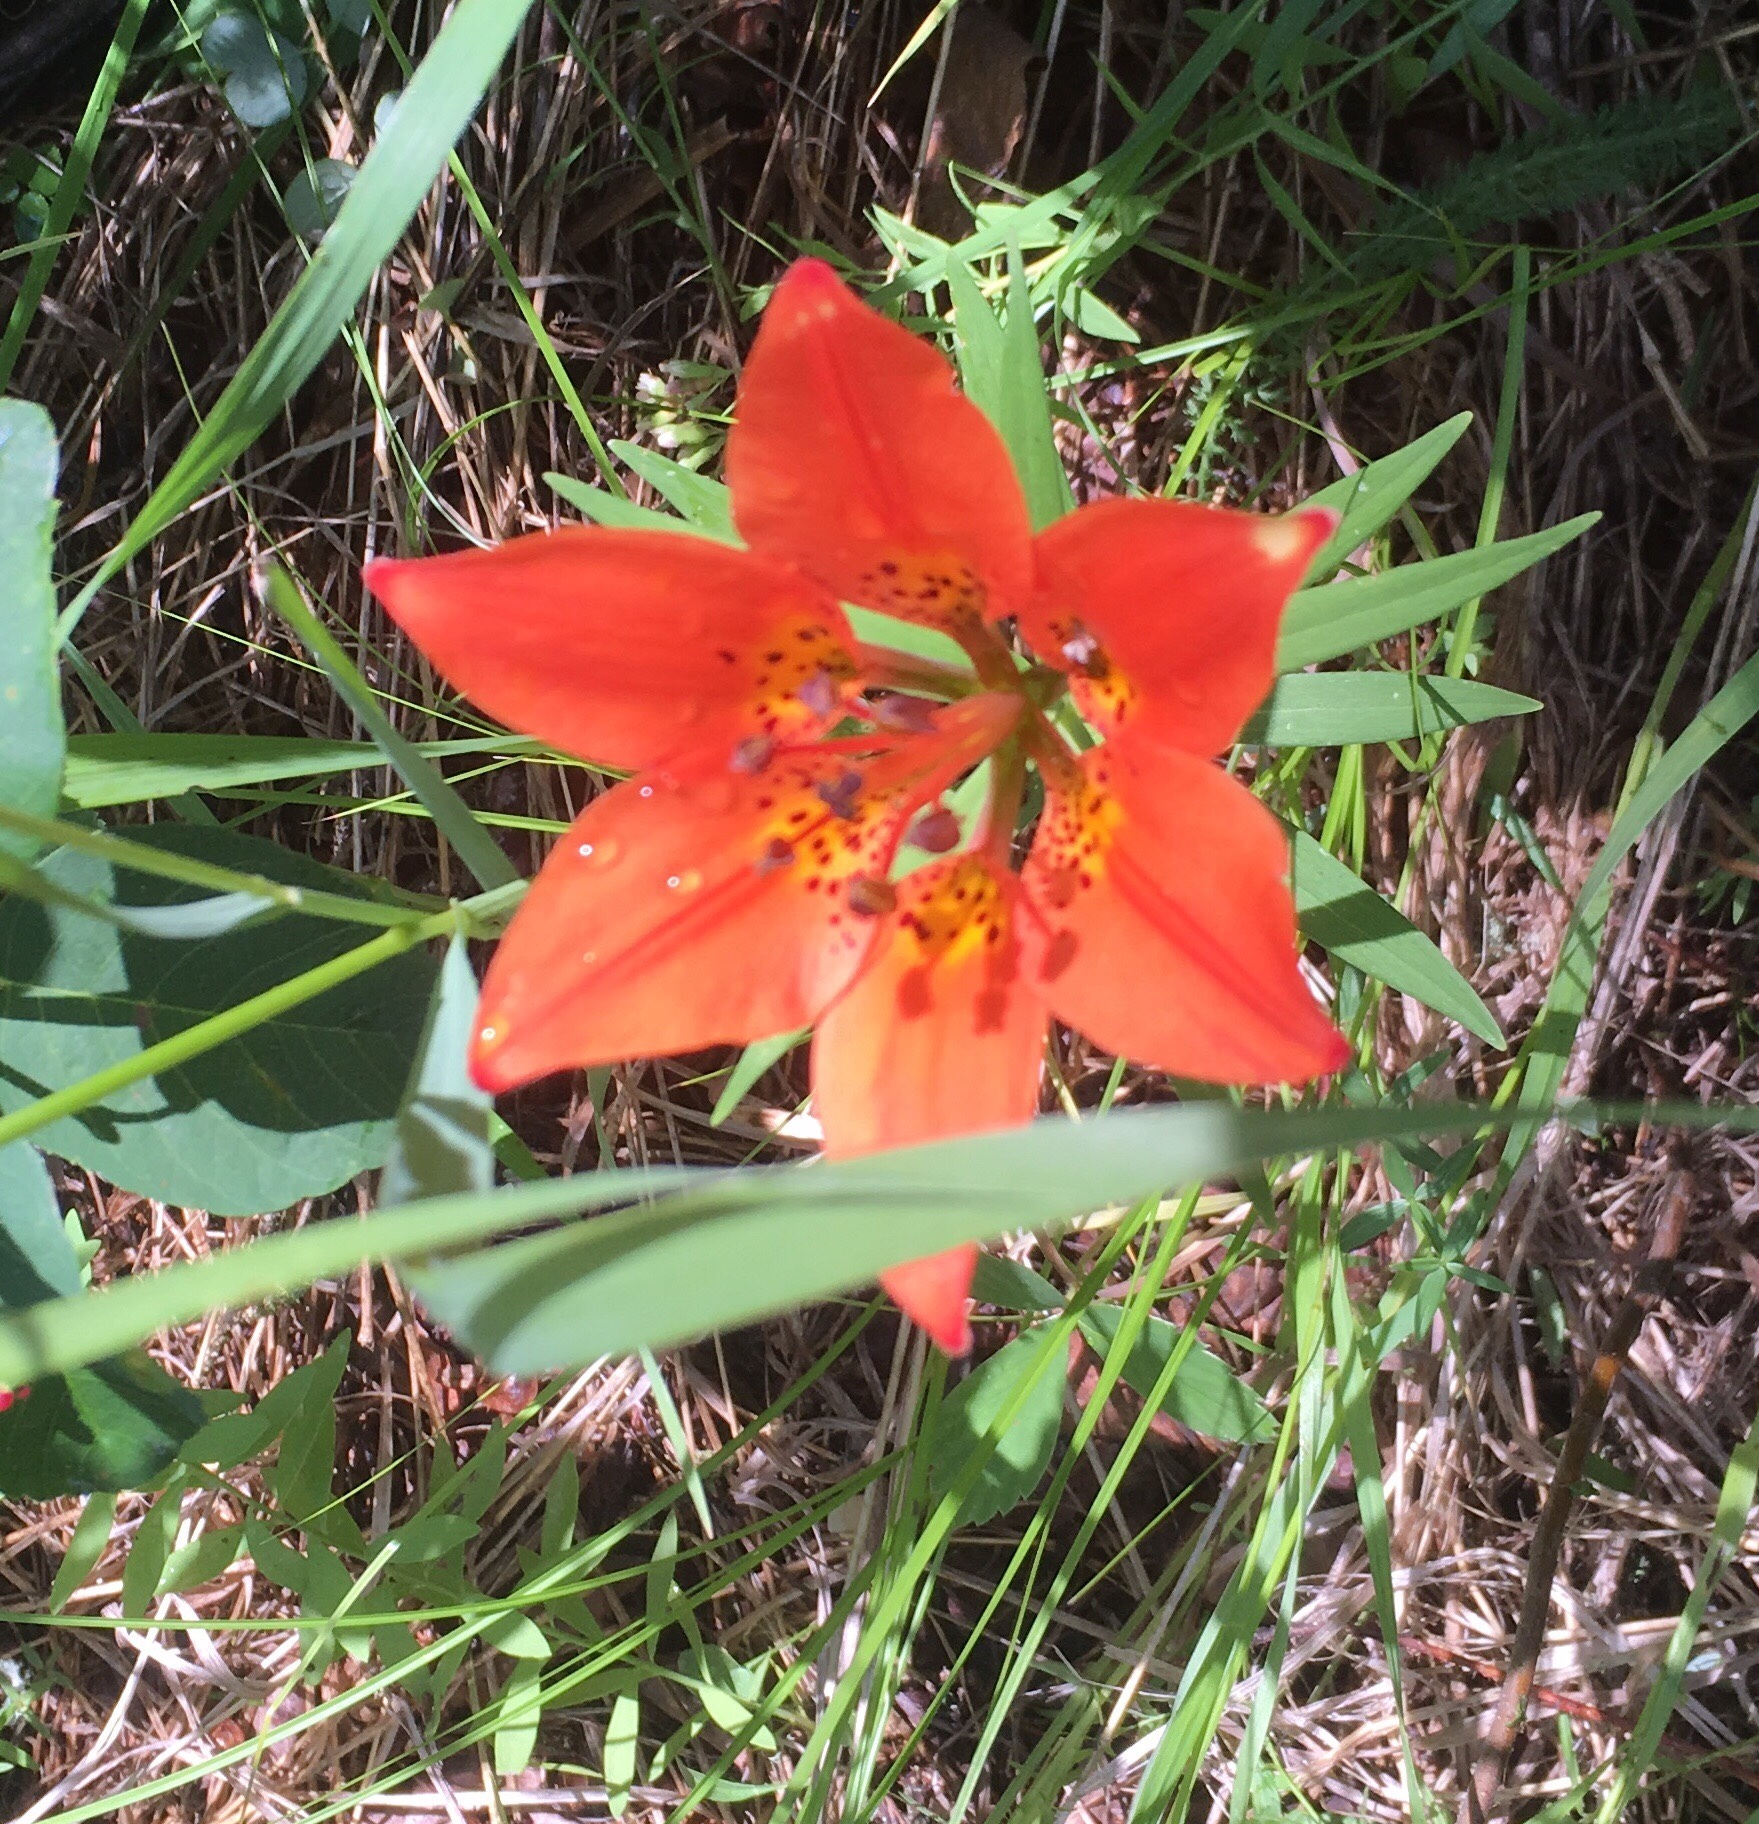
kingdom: Plantae
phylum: Tracheophyta
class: Liliopsida
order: Liliales
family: Liliaceae
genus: Lilium
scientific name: Lilium philadelphicum
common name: Red lily
